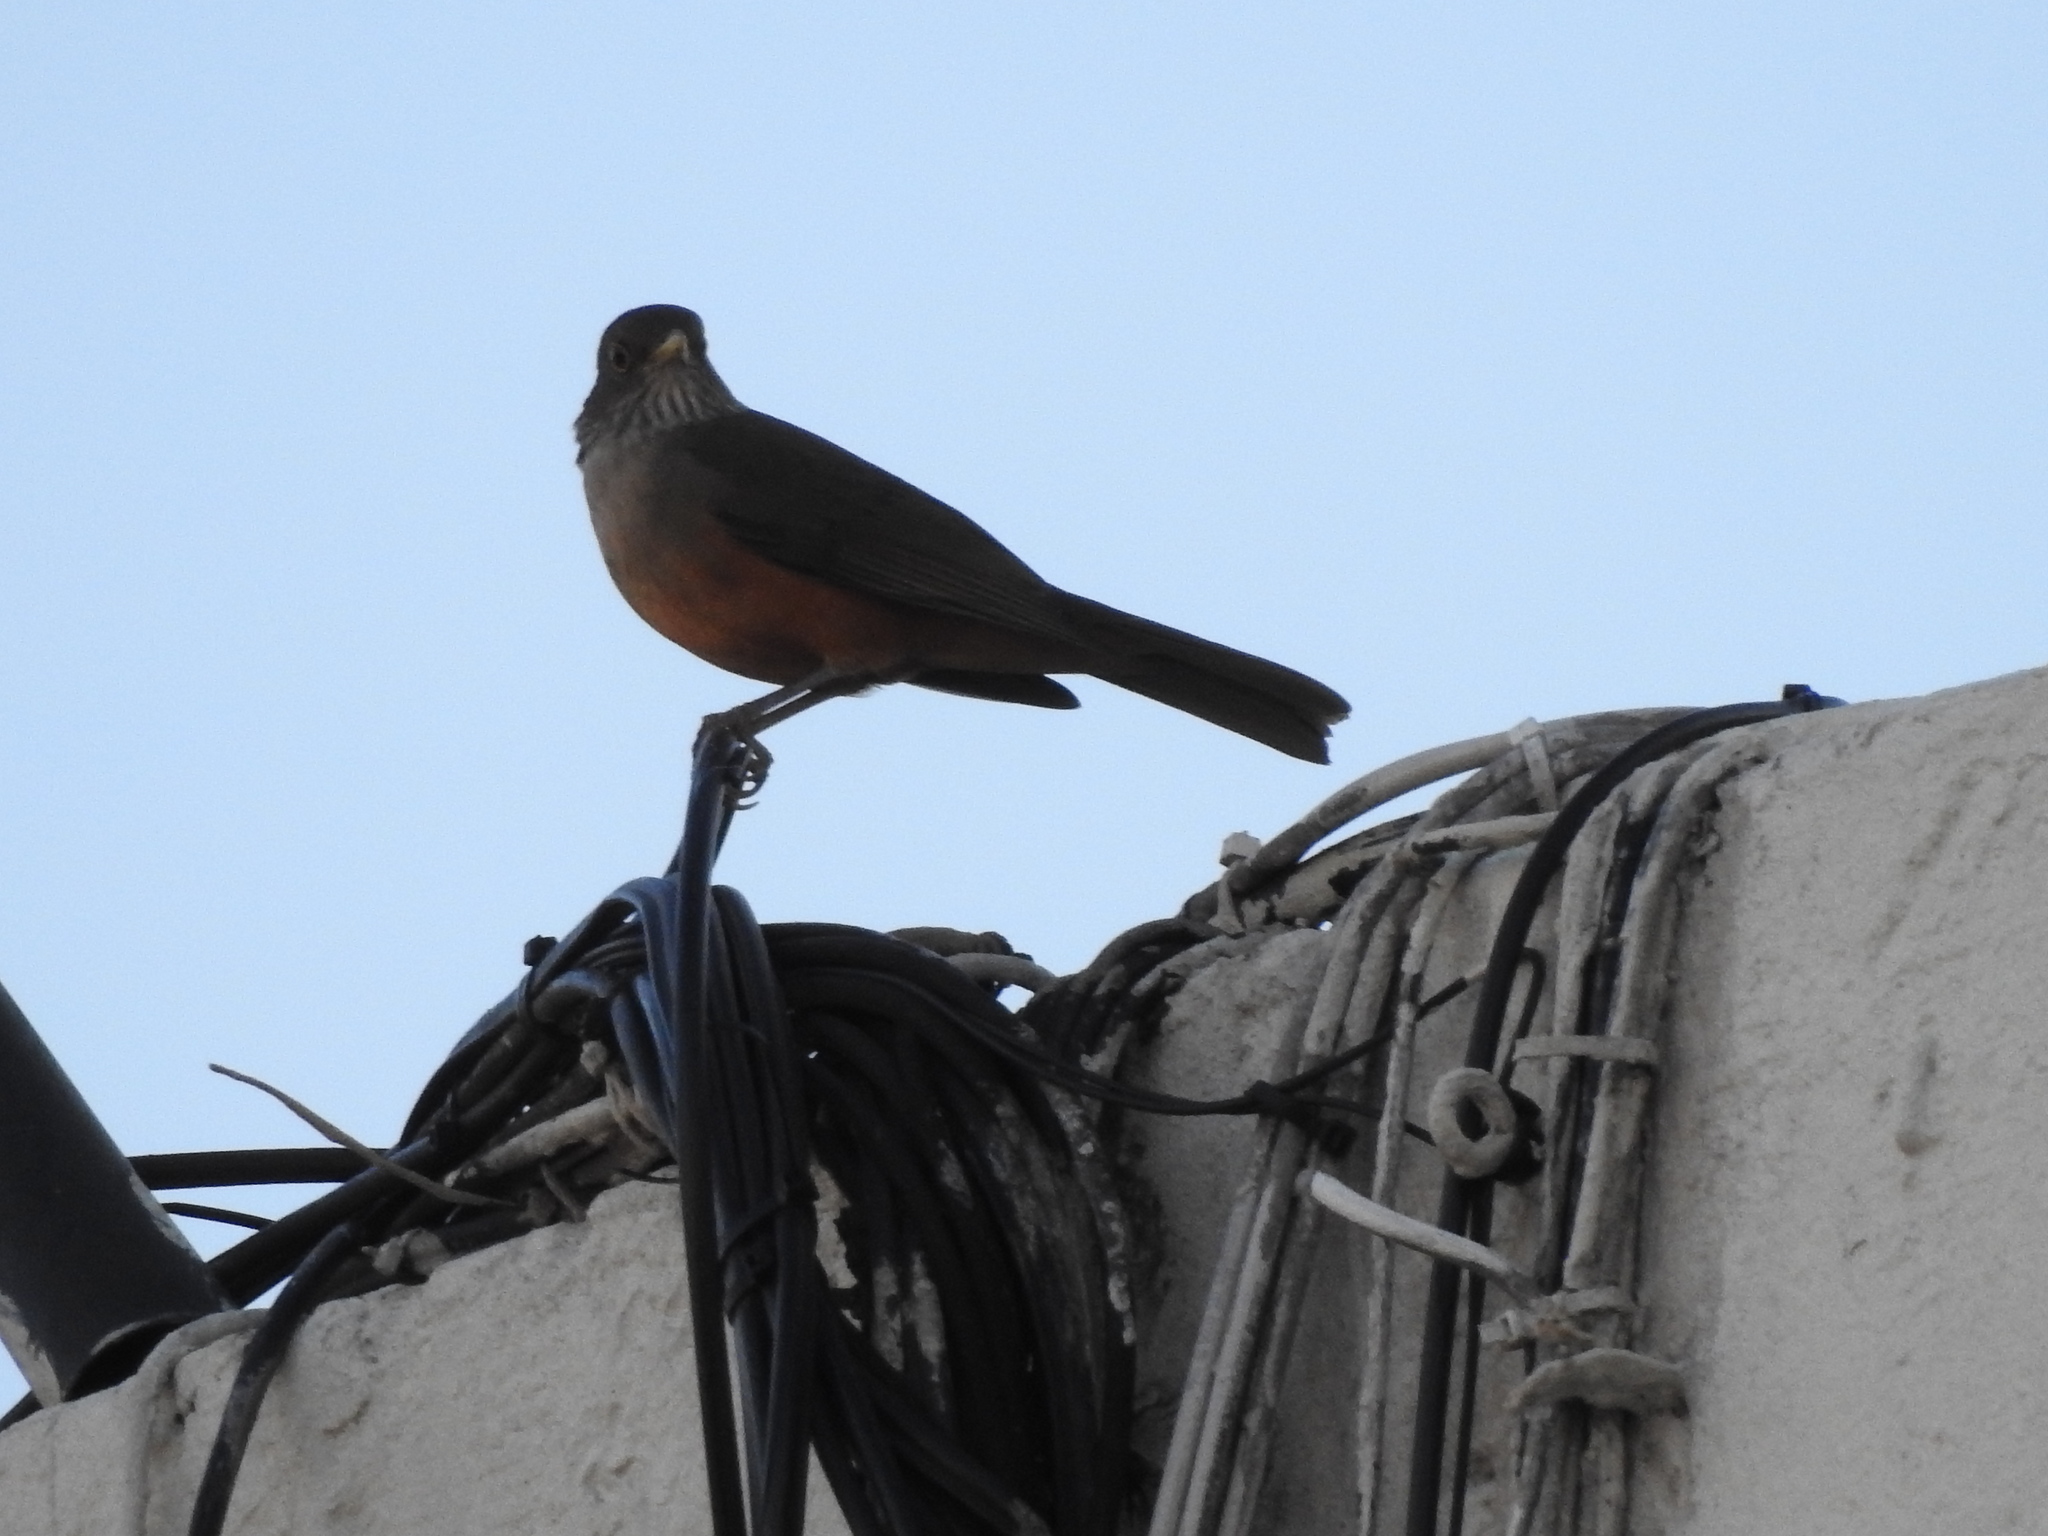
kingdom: Animalia
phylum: Chordata
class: Aves
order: Passeriformes
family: Turdidae
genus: Turdus
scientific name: Turdus rufiventris
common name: Rufous-bellied thrush
